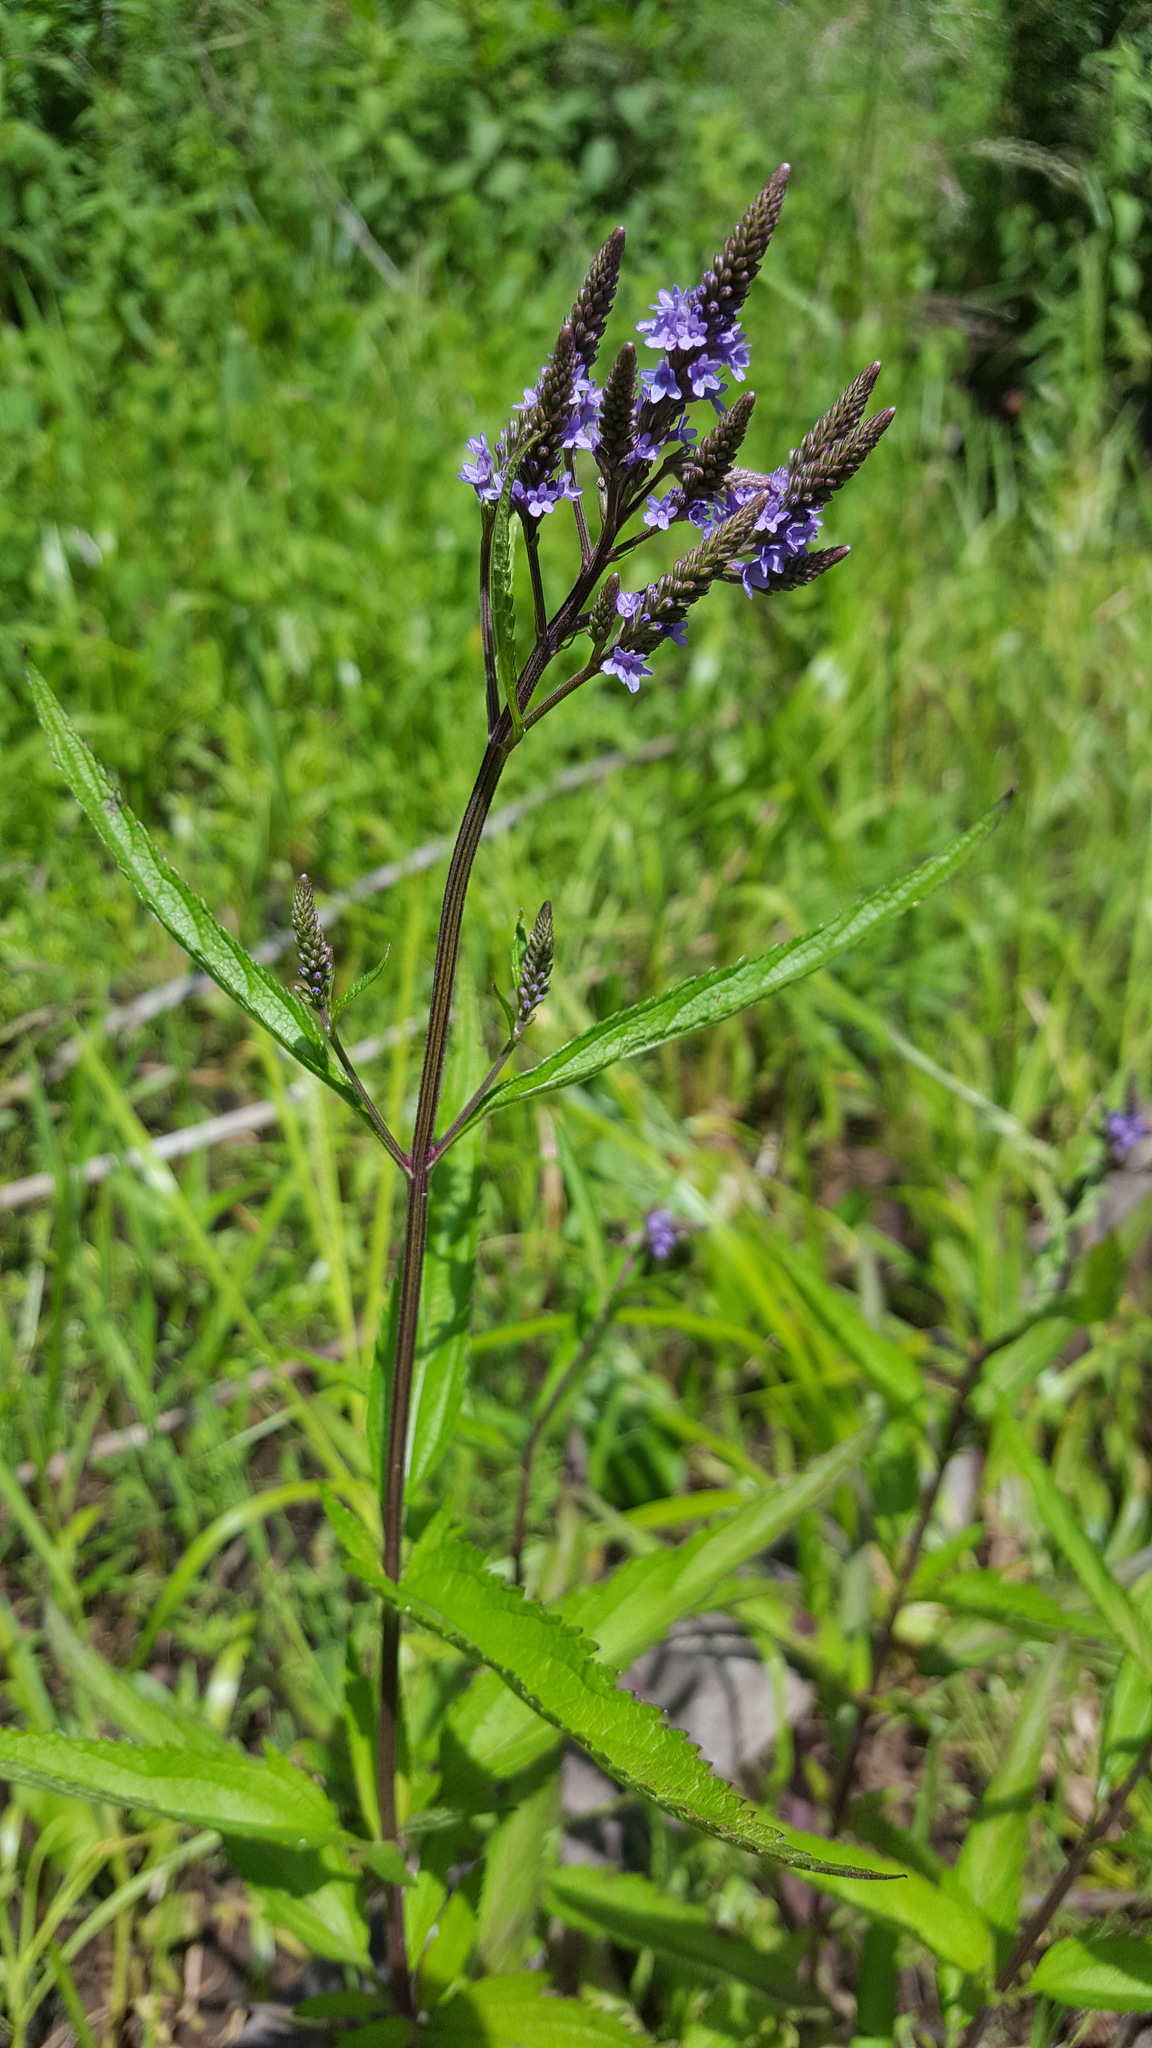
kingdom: Plantae
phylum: Tracheophyta
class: Magnoliopsida
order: Lamiales
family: Verbenaceae
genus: Verbena
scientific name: Verbena hastata
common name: American blue vervain
